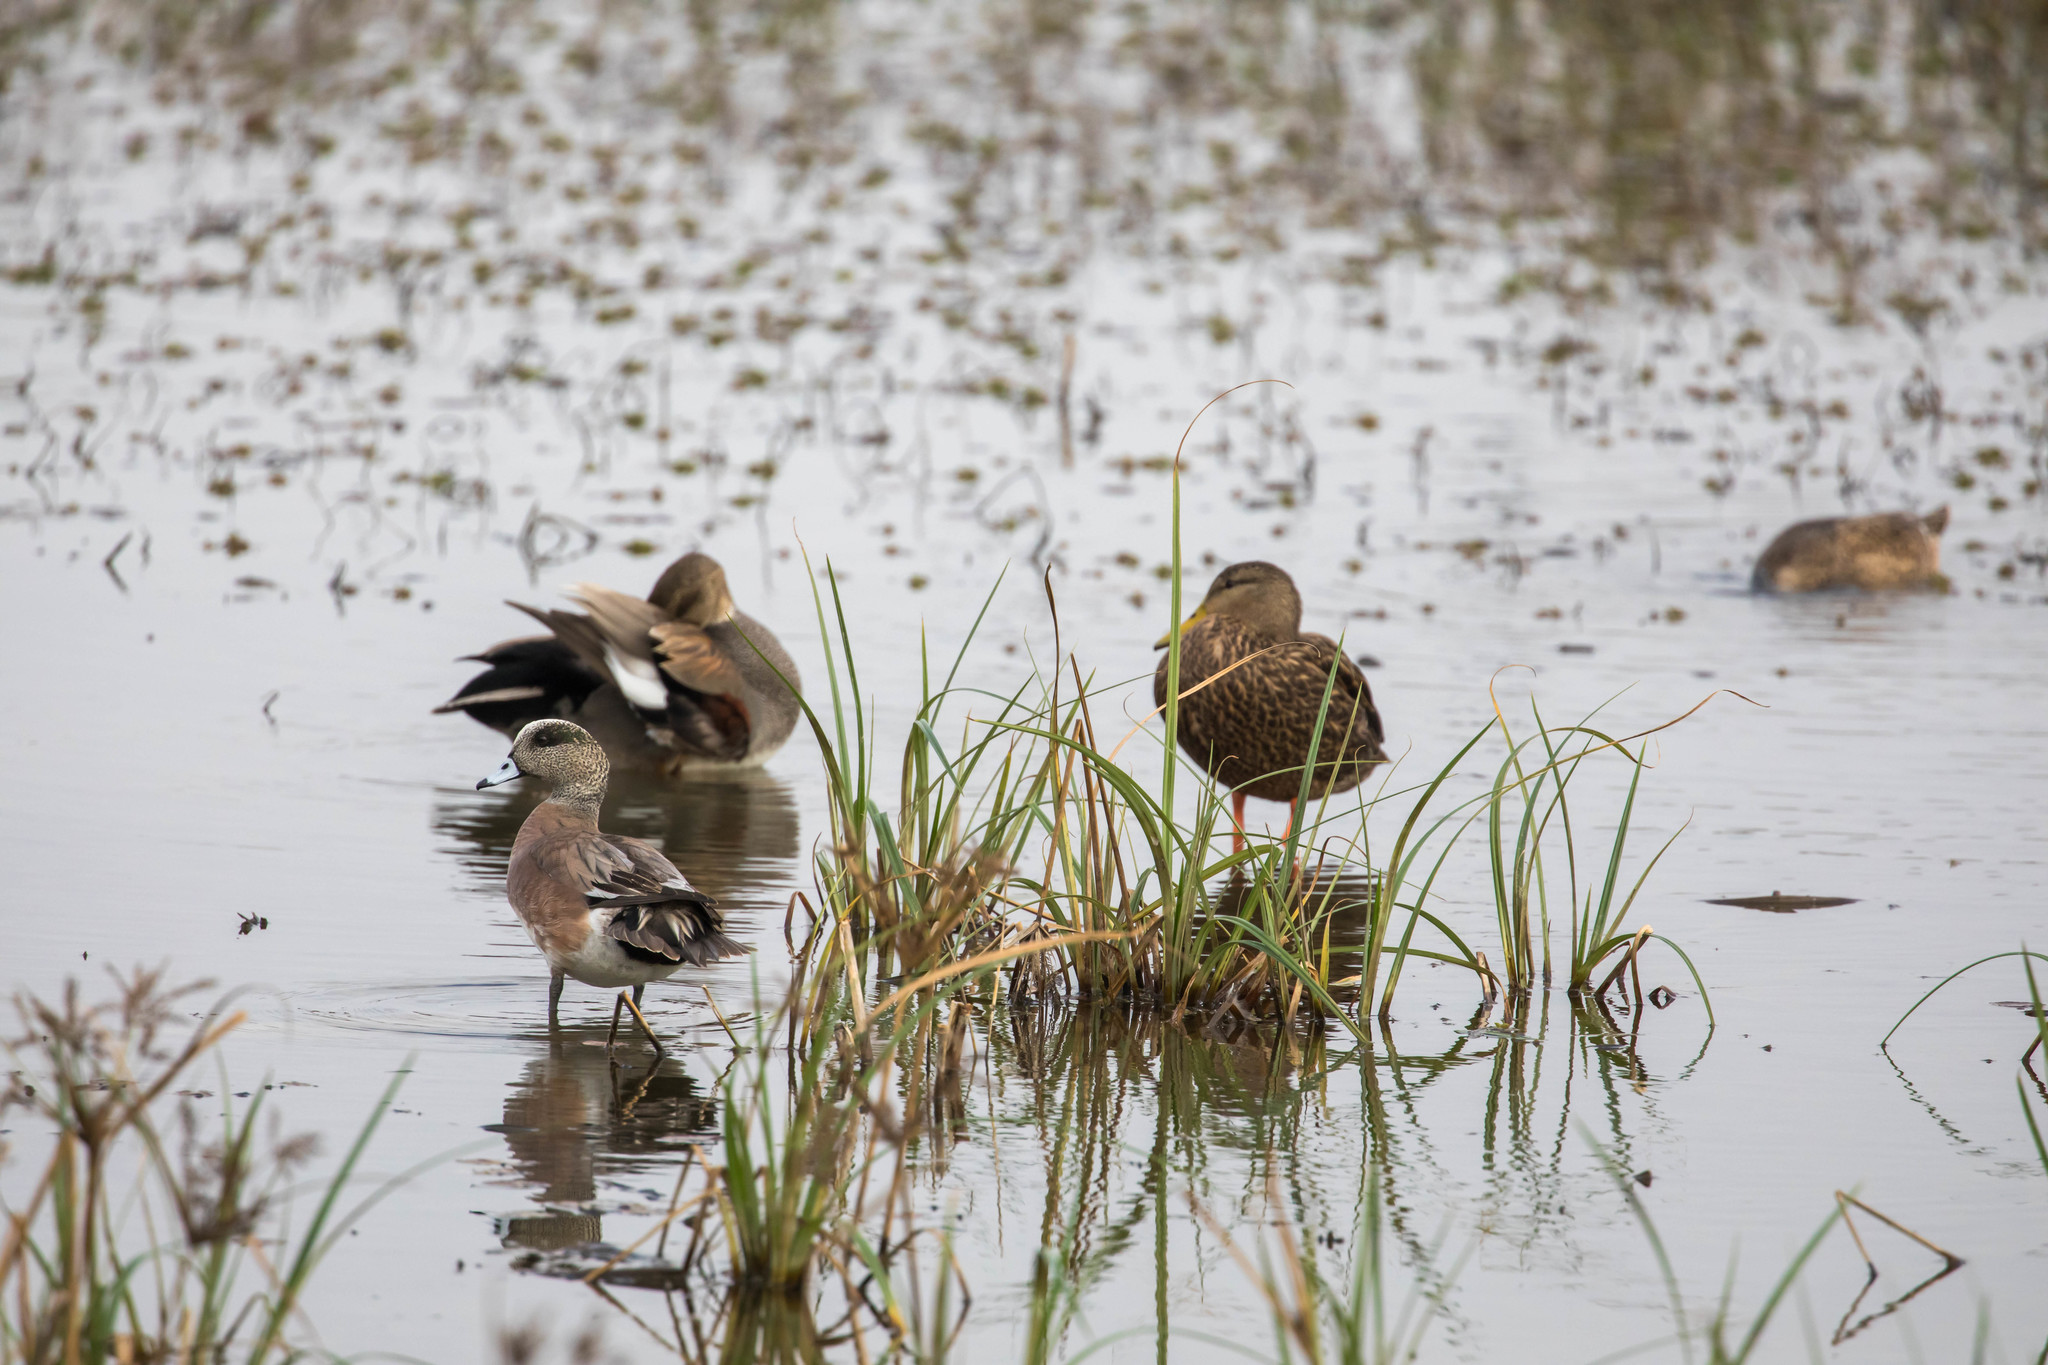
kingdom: Animalia
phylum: Chordata
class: Aves
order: Anseriformes
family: Anatidae
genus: Mareca
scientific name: Mareca americana
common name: American wigeon
